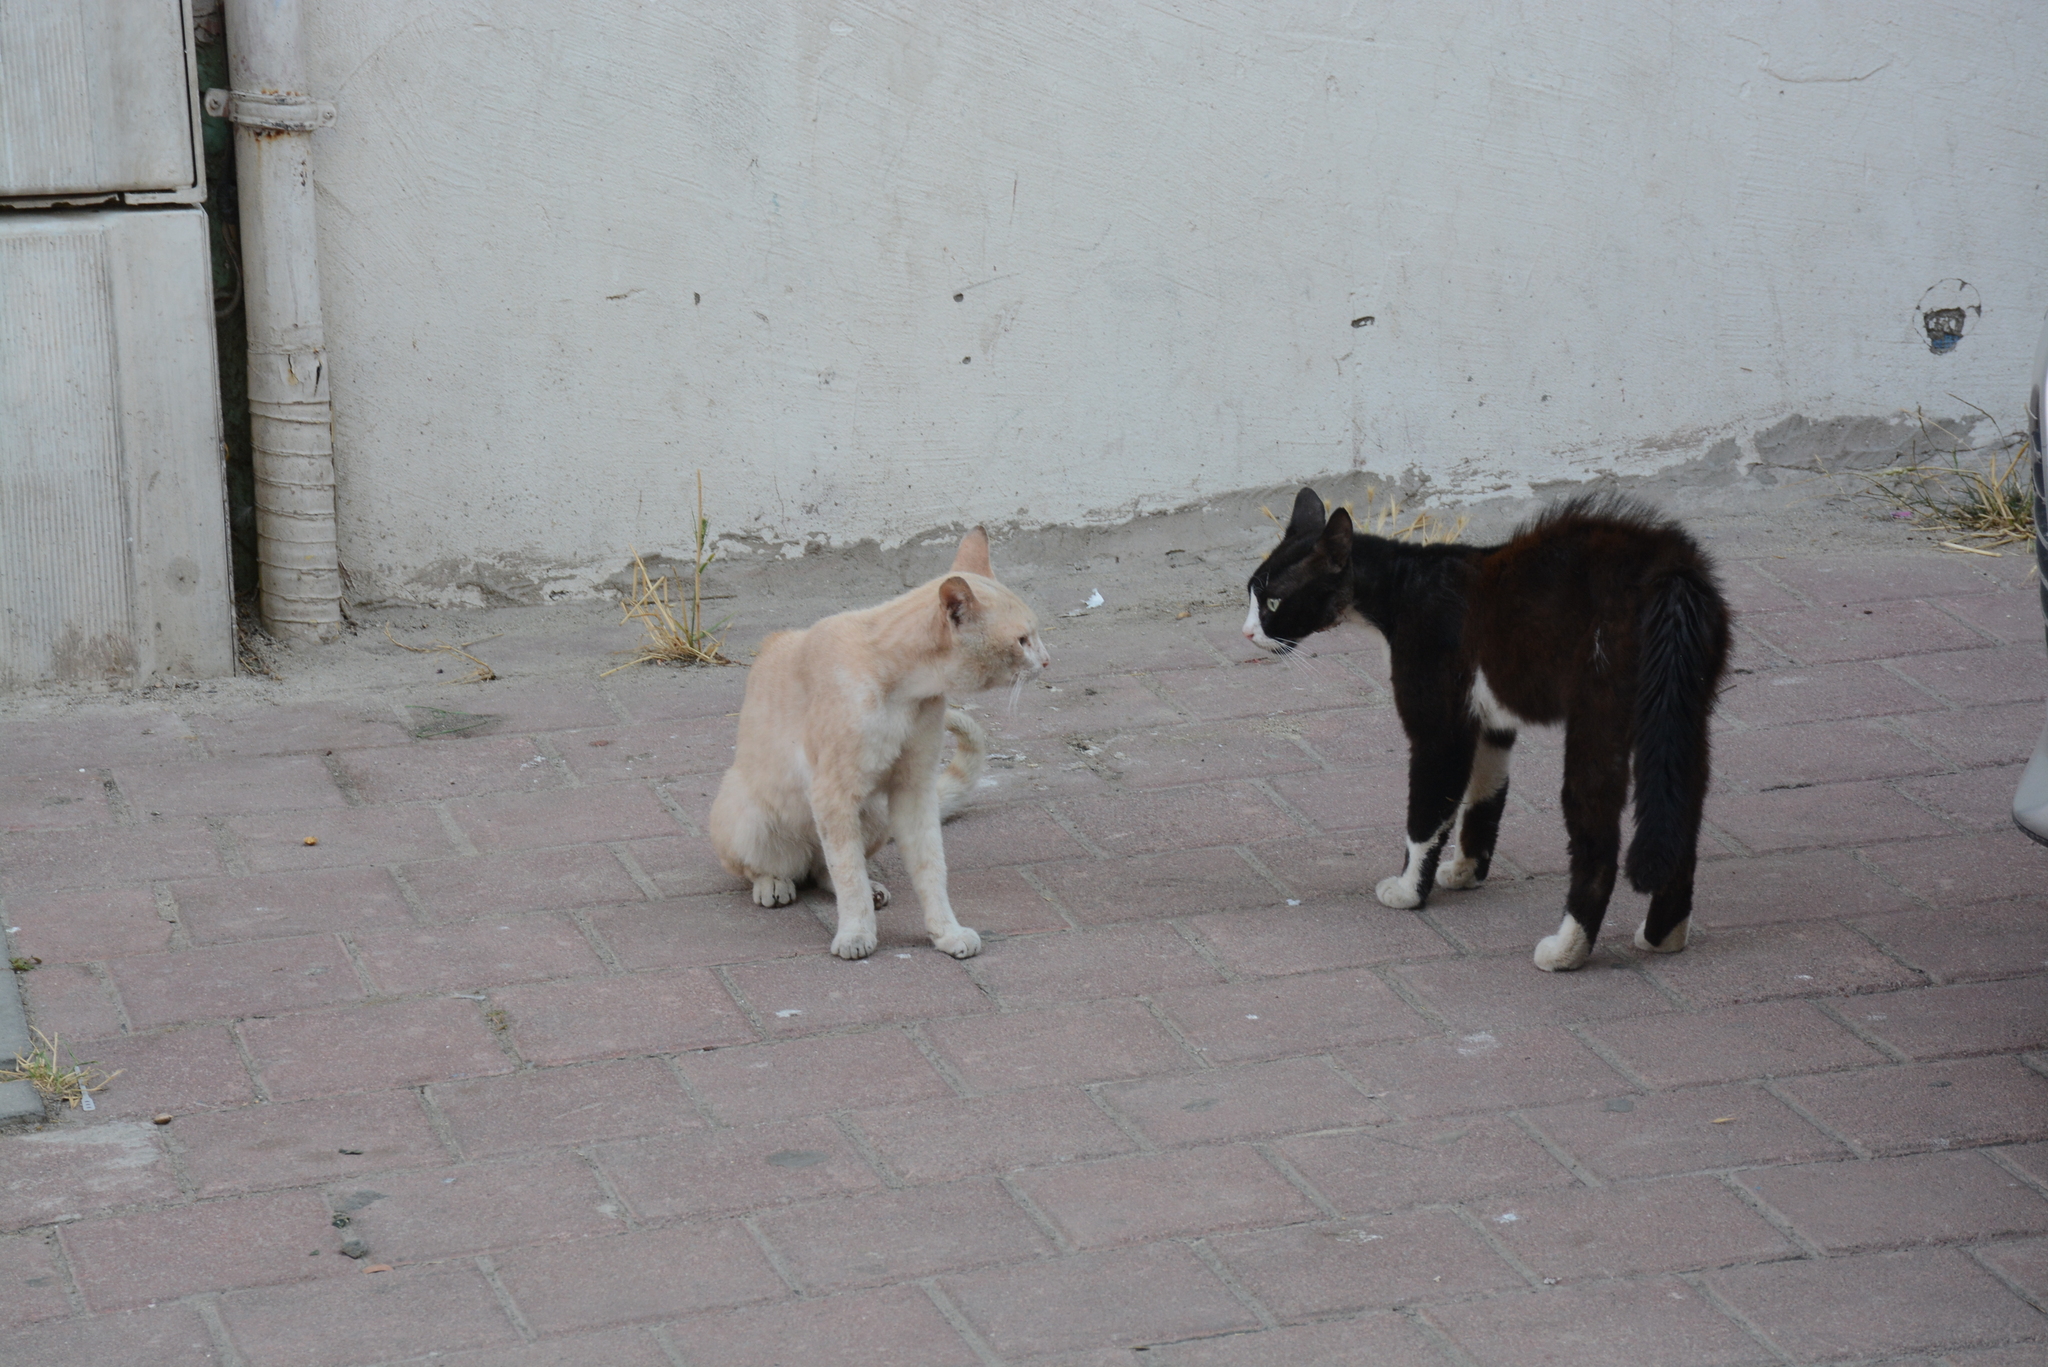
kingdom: Animalia
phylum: Chordata
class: Mammalia
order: Carnivora
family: Felidae
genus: Felis
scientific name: Felis catus
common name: Domestic cat
